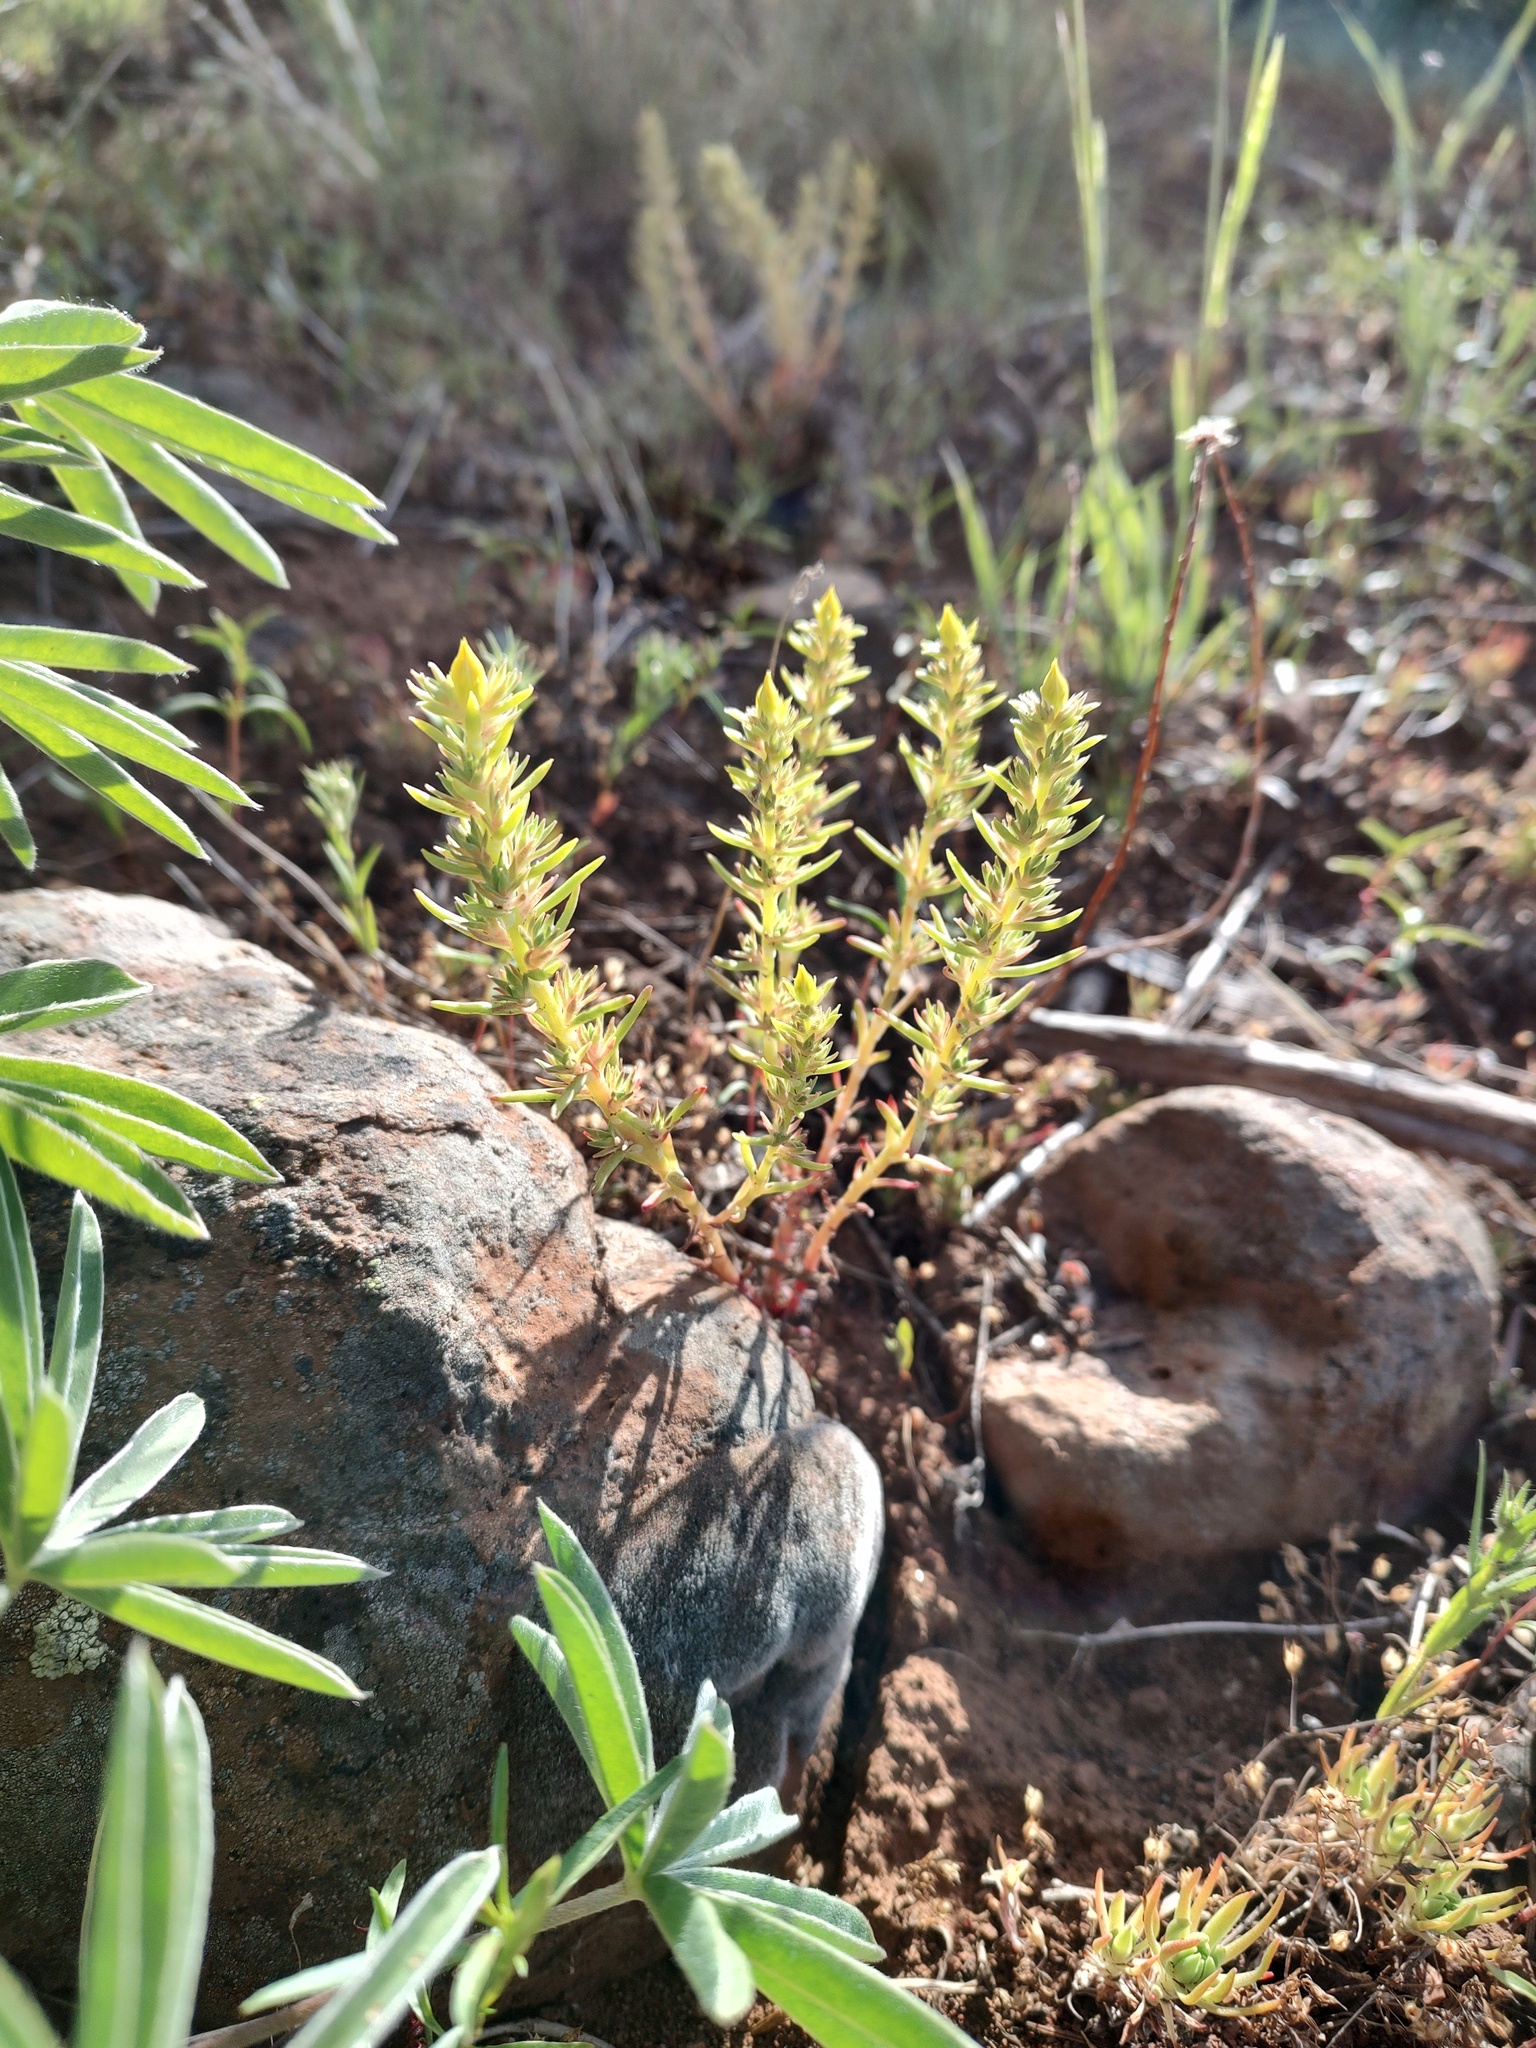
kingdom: Plantae
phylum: Tracheophyta
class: Magnoliopsida
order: Saxifragales
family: Crassulaceae
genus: Sedum
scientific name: Sedum stenopetalum
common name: Narrow-petaled stonecrop
